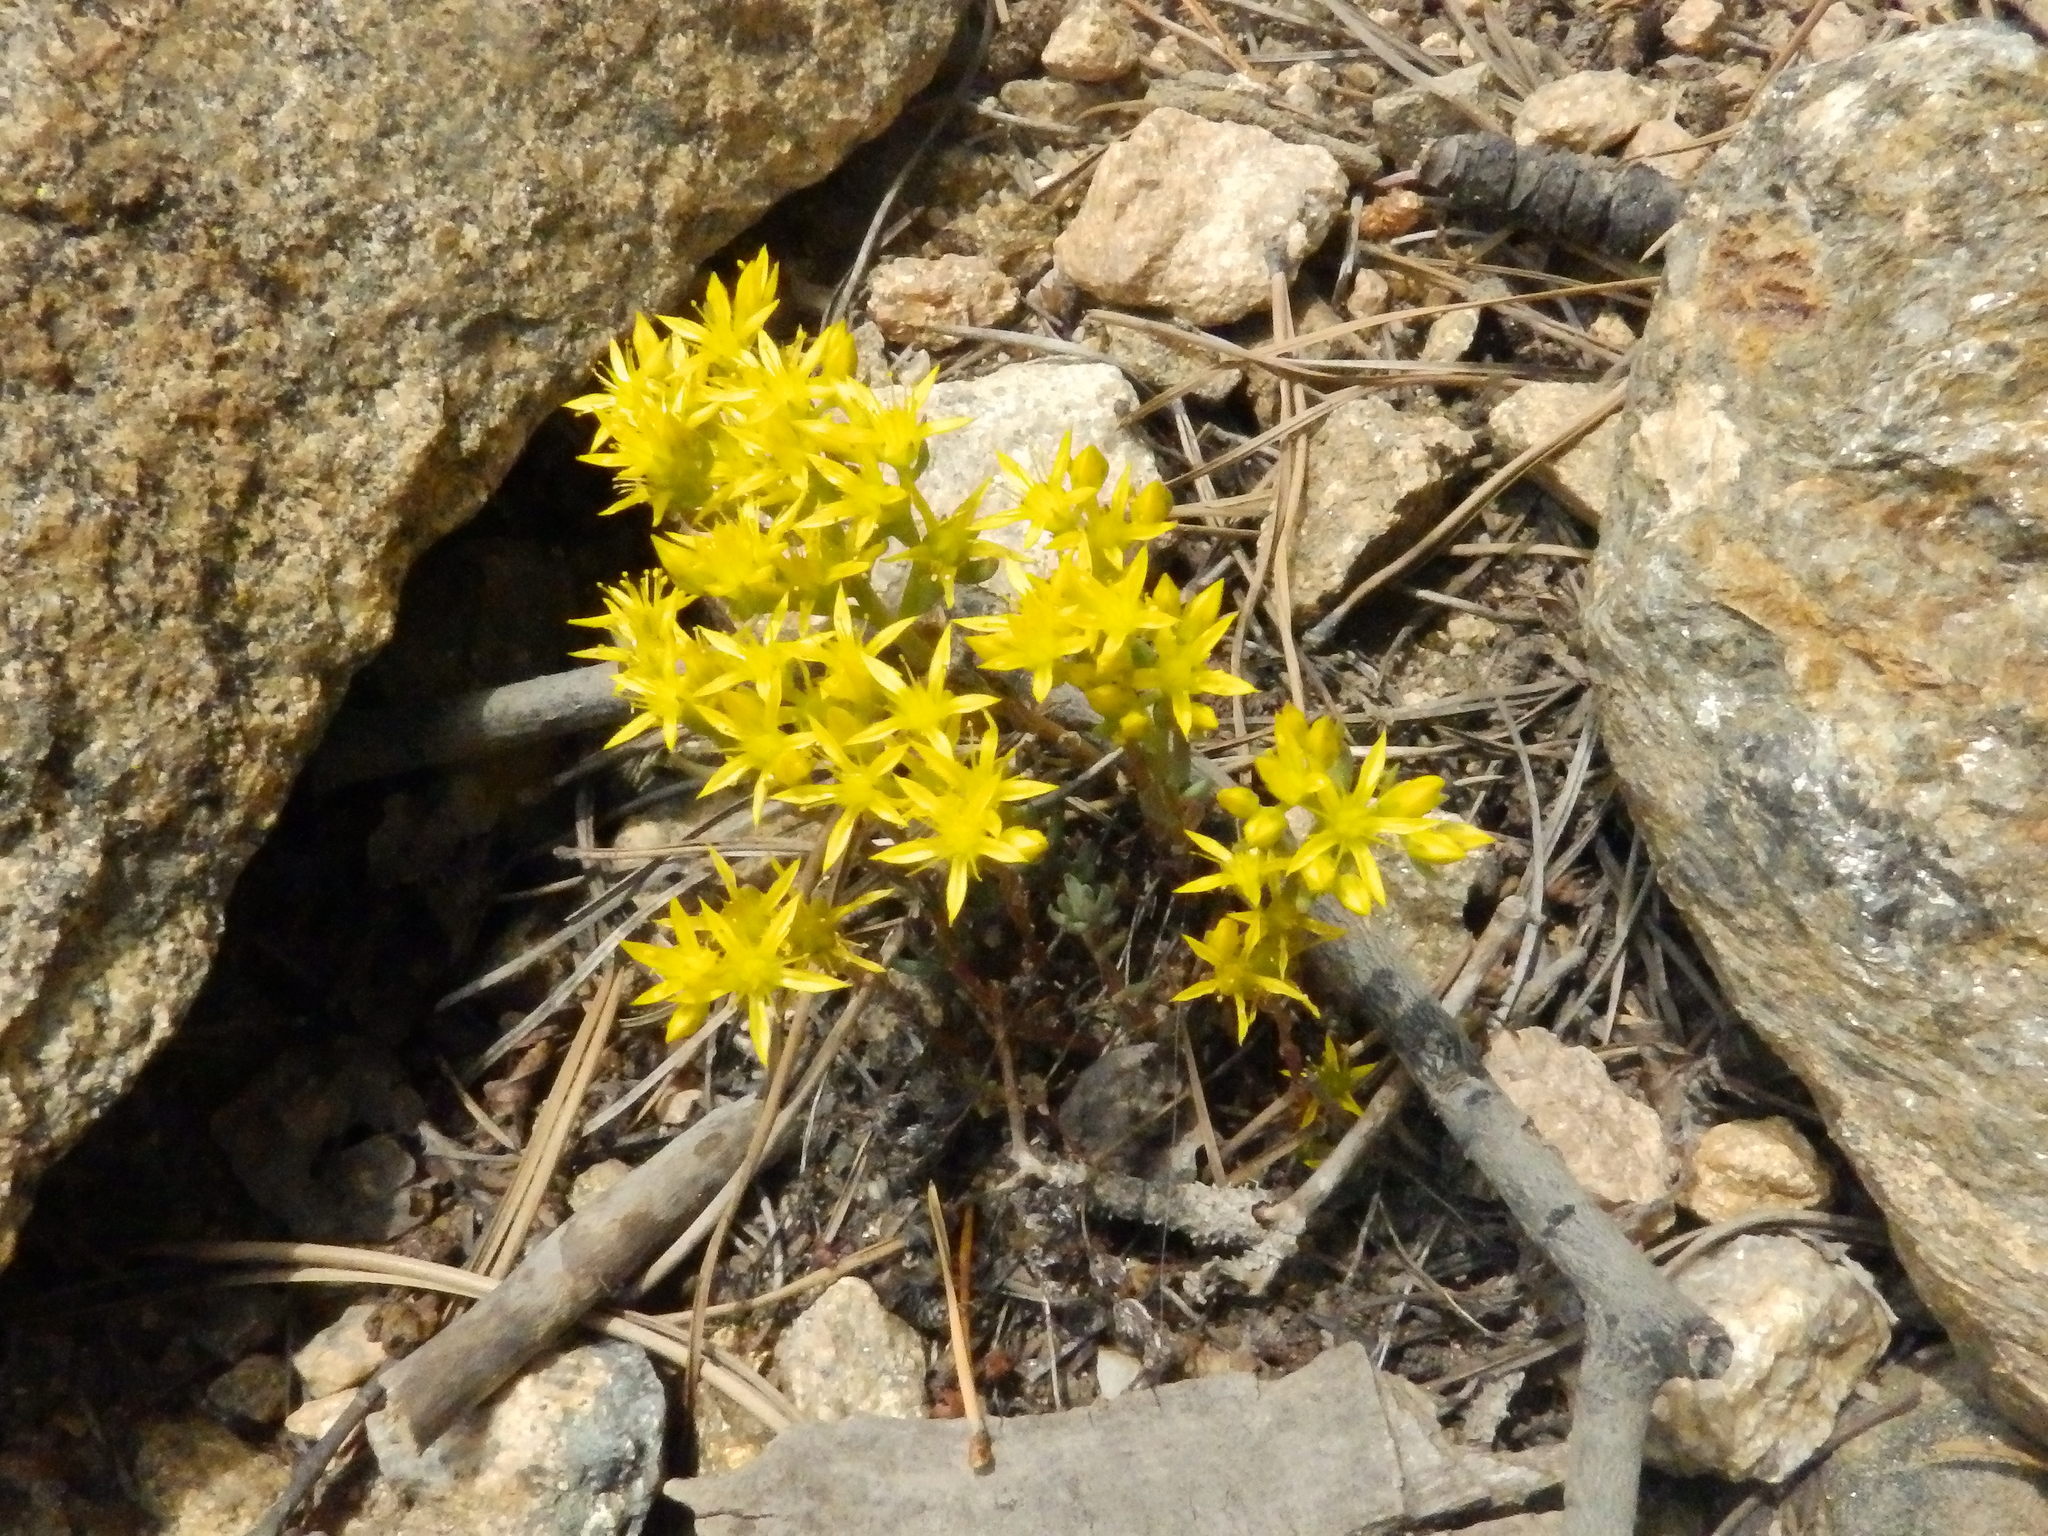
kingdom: Plantae
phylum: Tracheophyta
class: Magnoliopsida
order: Saxifragales
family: Crassulaceae
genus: Sedum
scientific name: Sedum lanceolatum
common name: Common stonecrop
